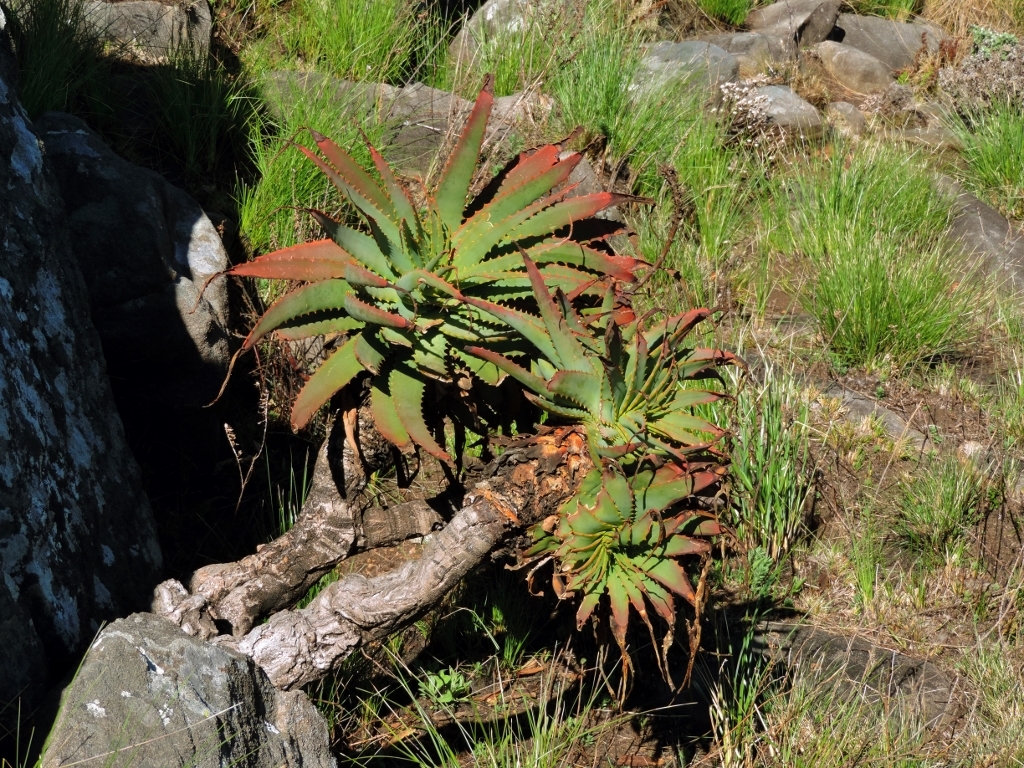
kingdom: Plantae
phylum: Tracheophyta
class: Liliopsida
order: Asparagales
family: Asphodelaceae
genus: Aloe
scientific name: Aloe arborescens
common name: Candelabra aloe
